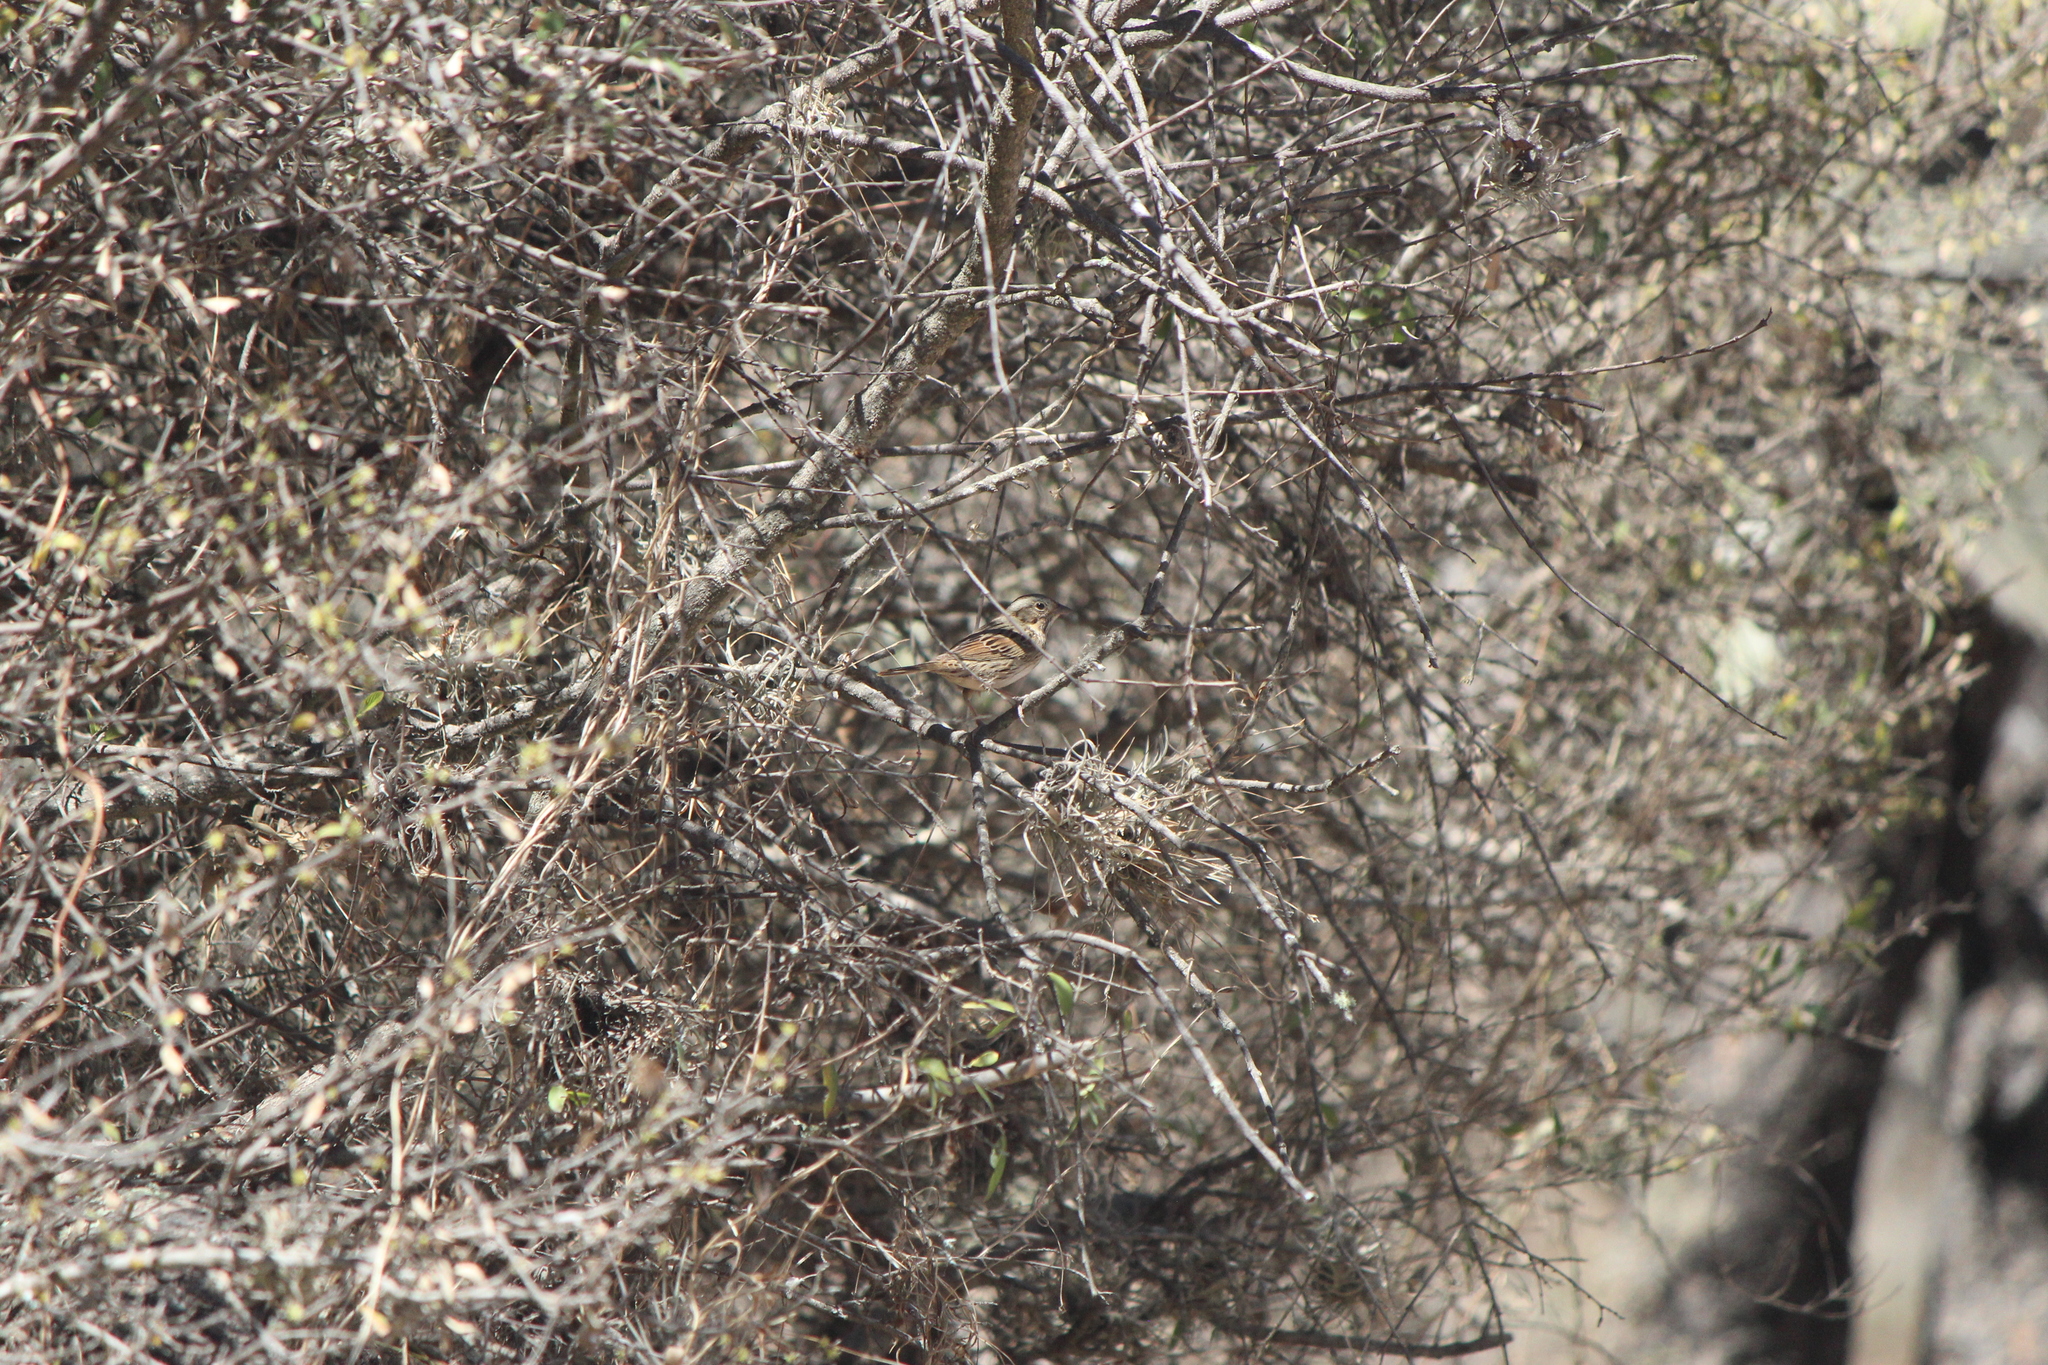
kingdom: Animalia
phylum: Chordata
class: Aves
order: Passeriformes
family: Passerellidae
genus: Melospiza
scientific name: Melospiza lincolnii
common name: Lincoln's sparrow
